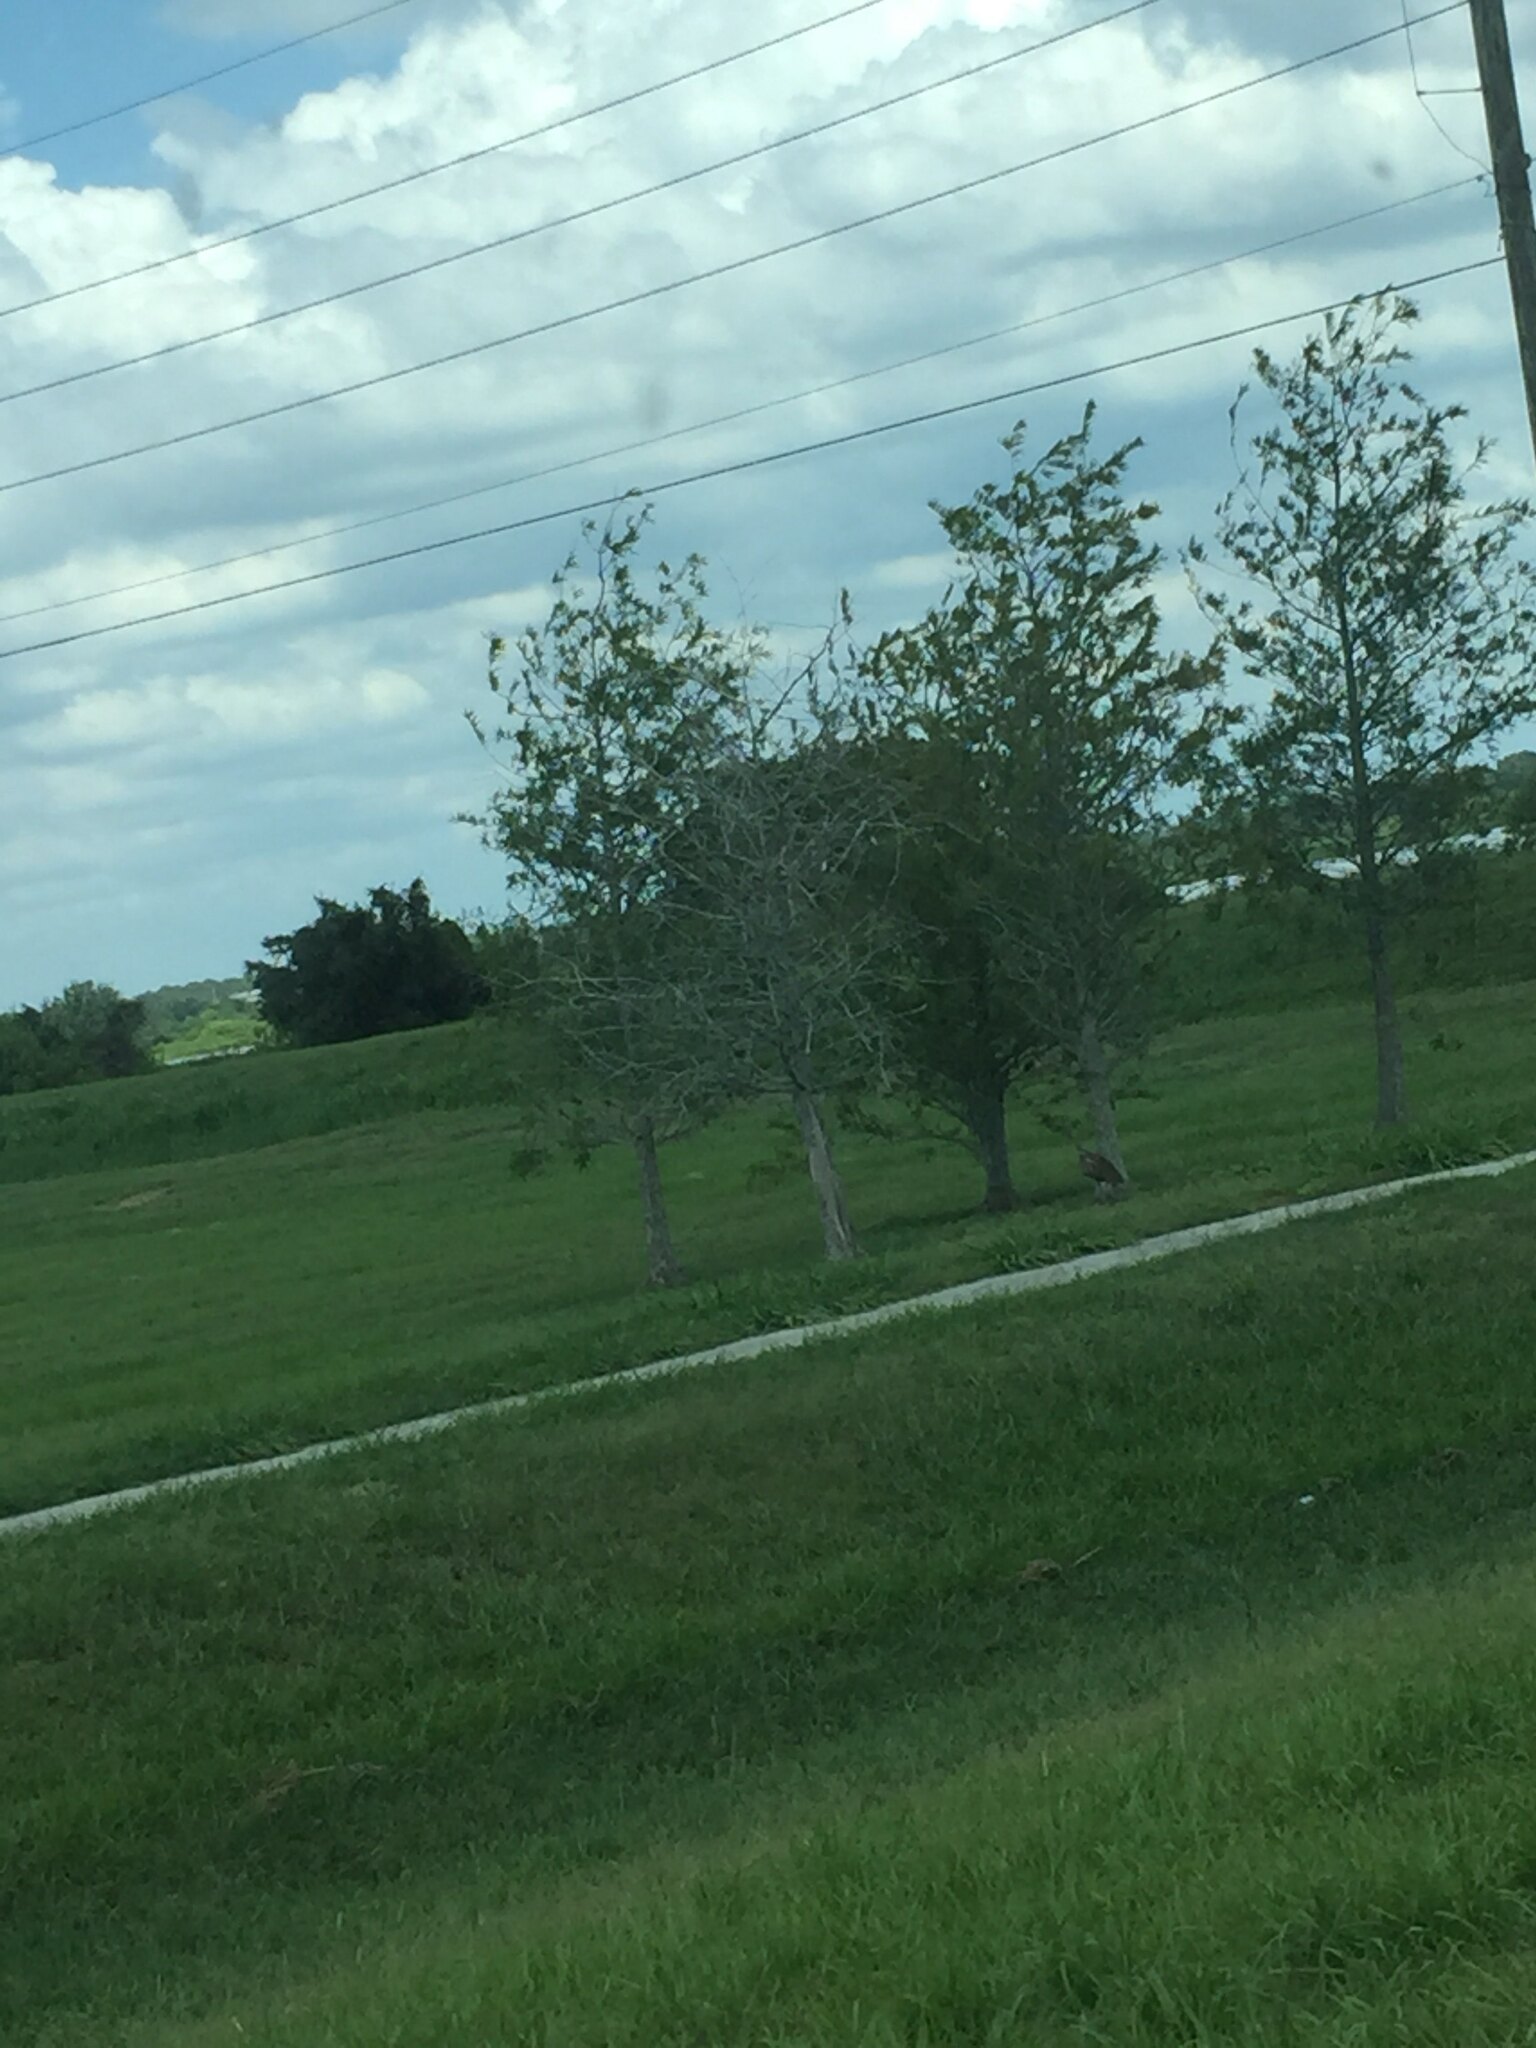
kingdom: Animalia
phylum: Chordata
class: Aves
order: Gruiformes
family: Aramidae
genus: Aramus
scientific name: Aramus guarauna
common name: Limpkin
